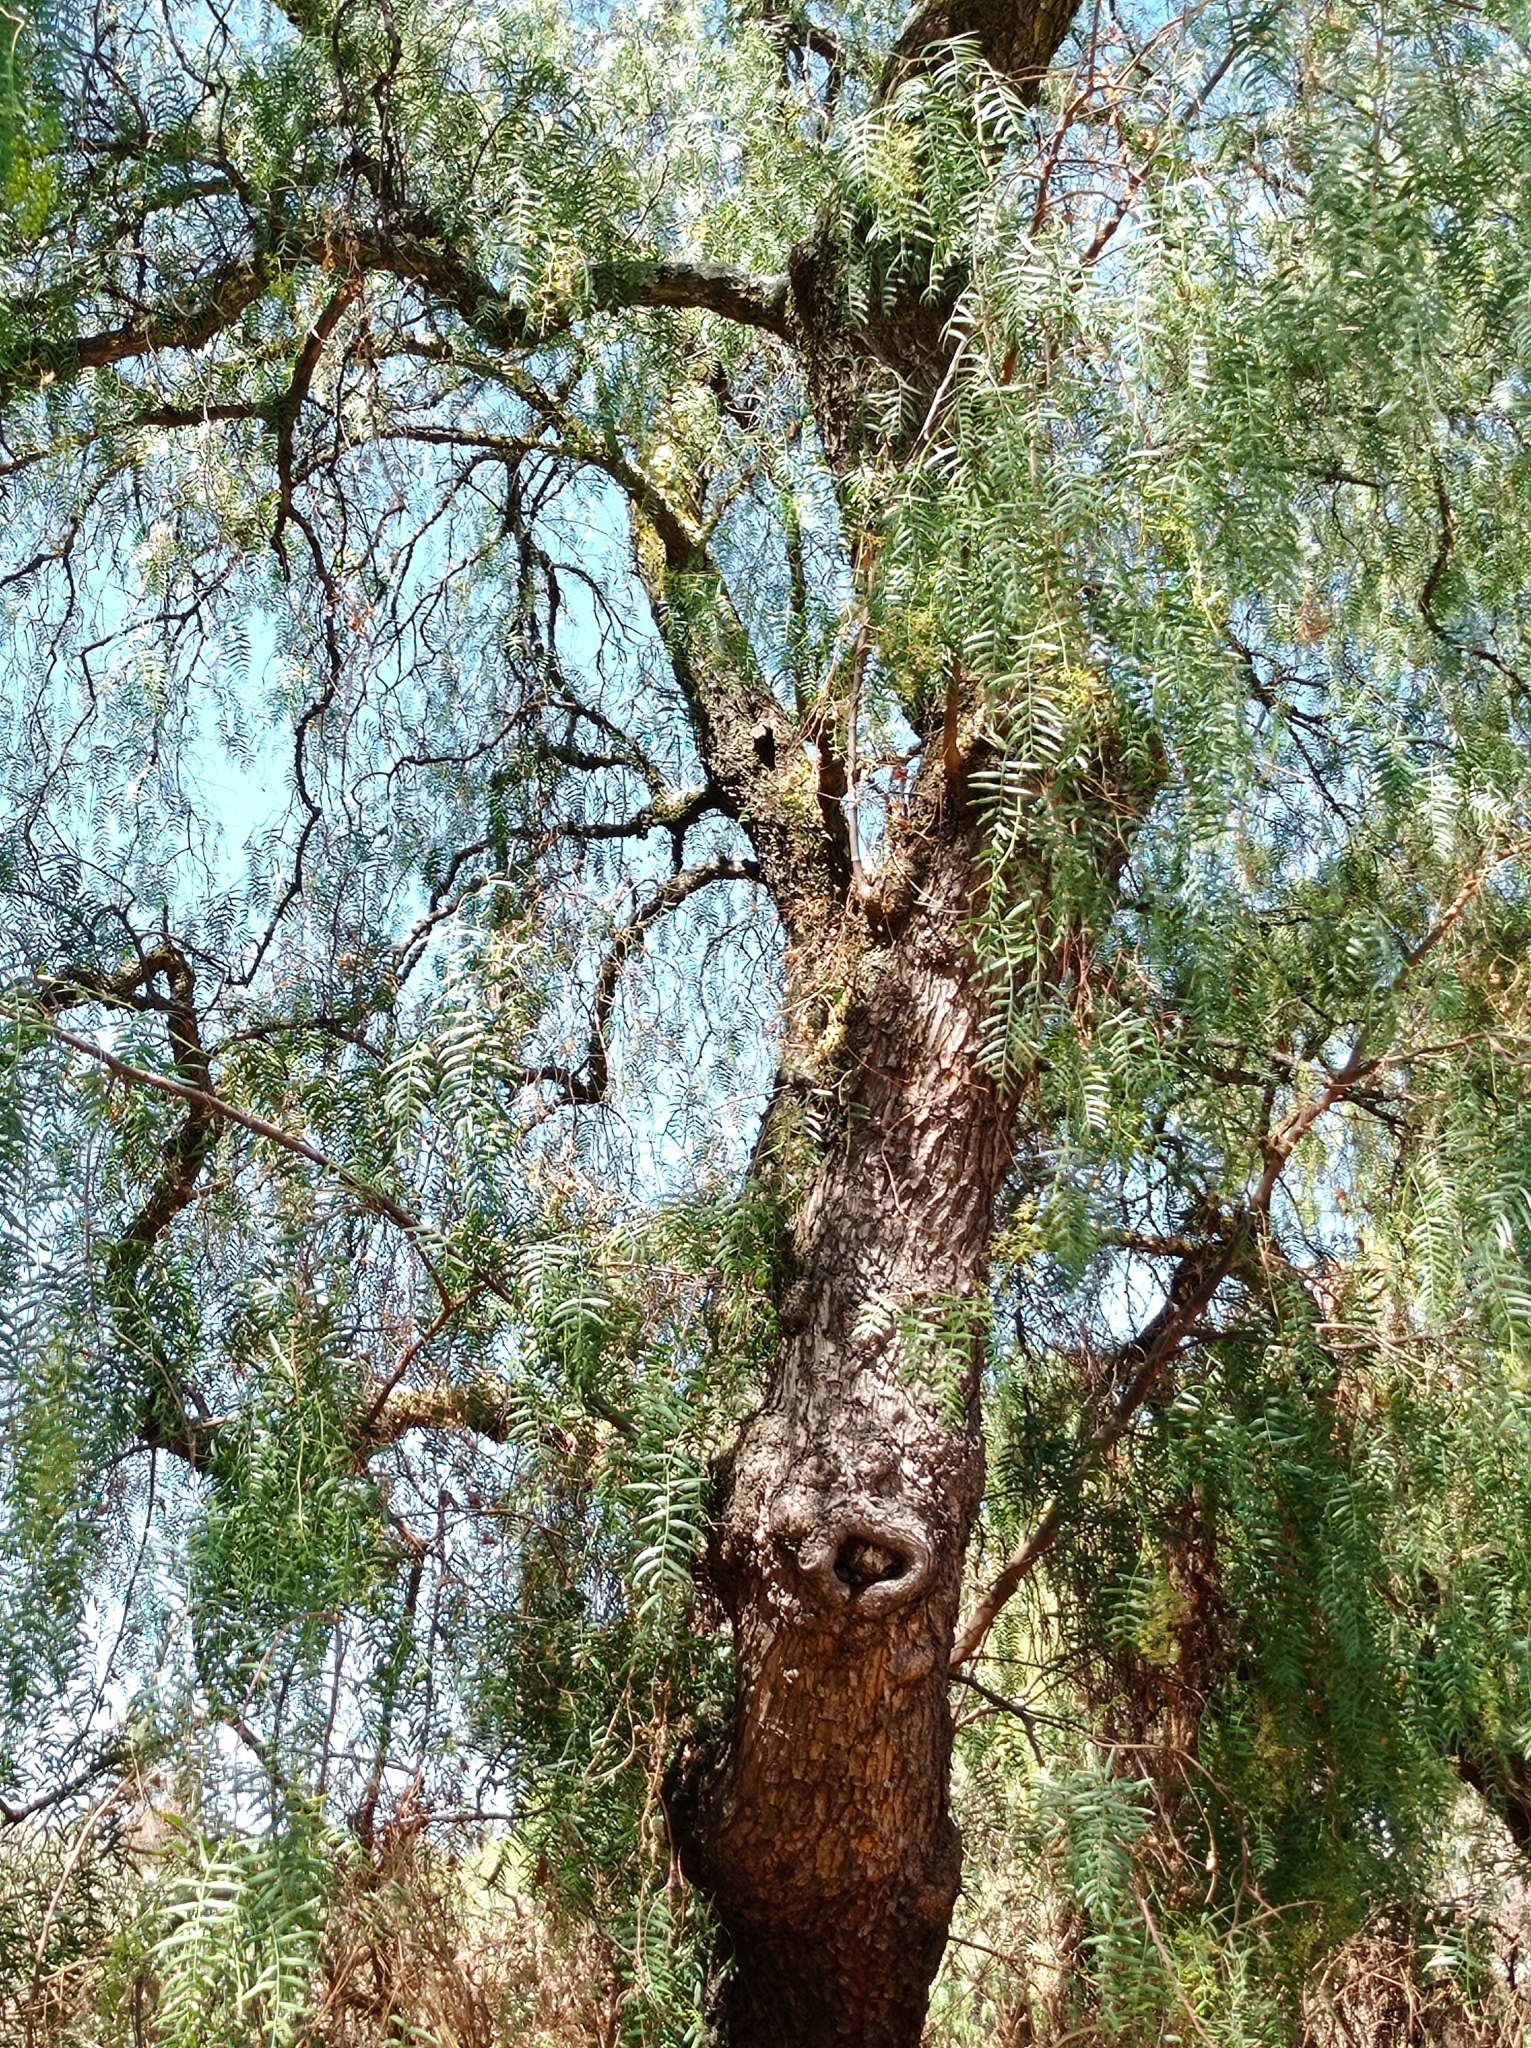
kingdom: Plantae
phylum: Tracheophyta
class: Magnoliopsida
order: Sapindales
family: Anacardiaceae
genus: Schinus
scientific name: Schinus molle
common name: Peruvian peppertree
